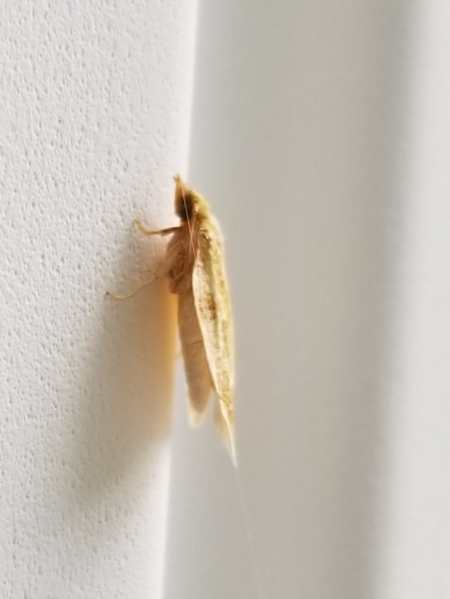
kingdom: Animalia
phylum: Arthropoda
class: Insecta
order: Lepidoptera
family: Tortricidae
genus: Cenopis
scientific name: Cenopis pettitana
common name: Maple-basswood leafroller moth
